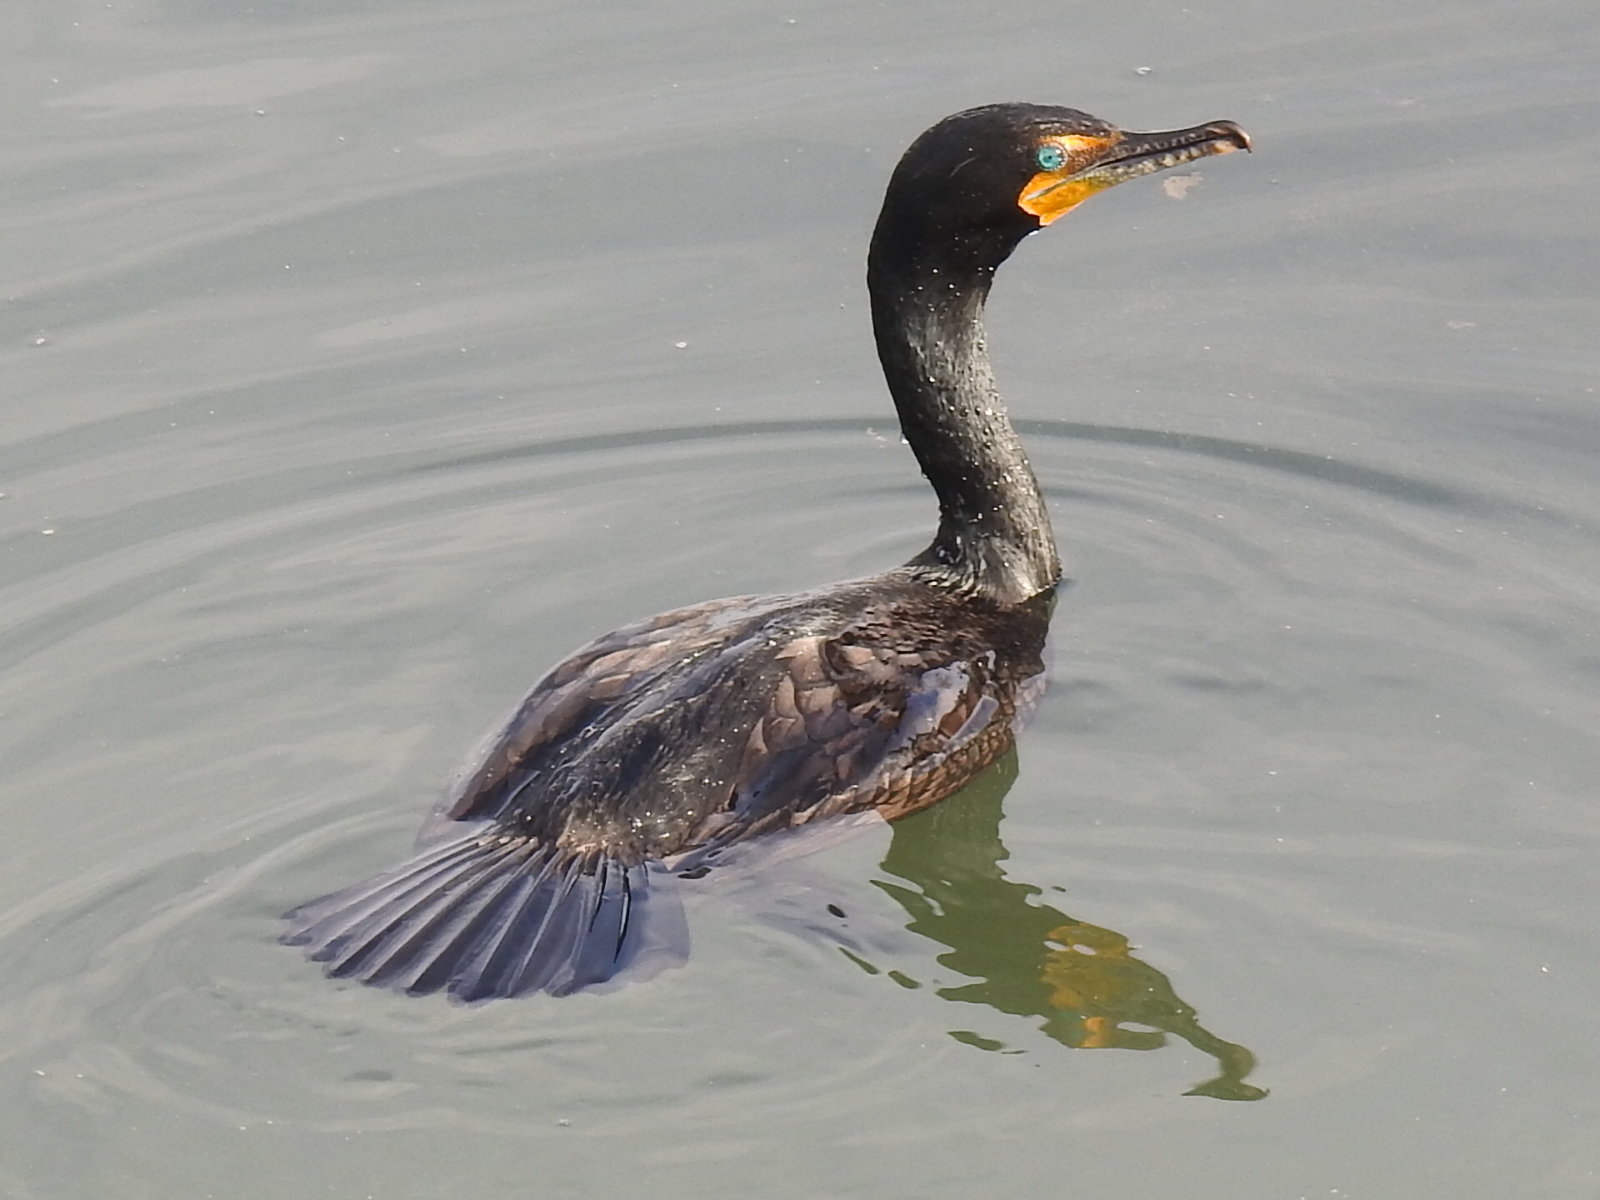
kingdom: Animalia
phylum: Chordata
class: Aves
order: Suliformes
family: Phalacrocoracidae
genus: Phalacrocorax
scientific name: Phalacrocorax auritus
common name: Double-crested cormorant
